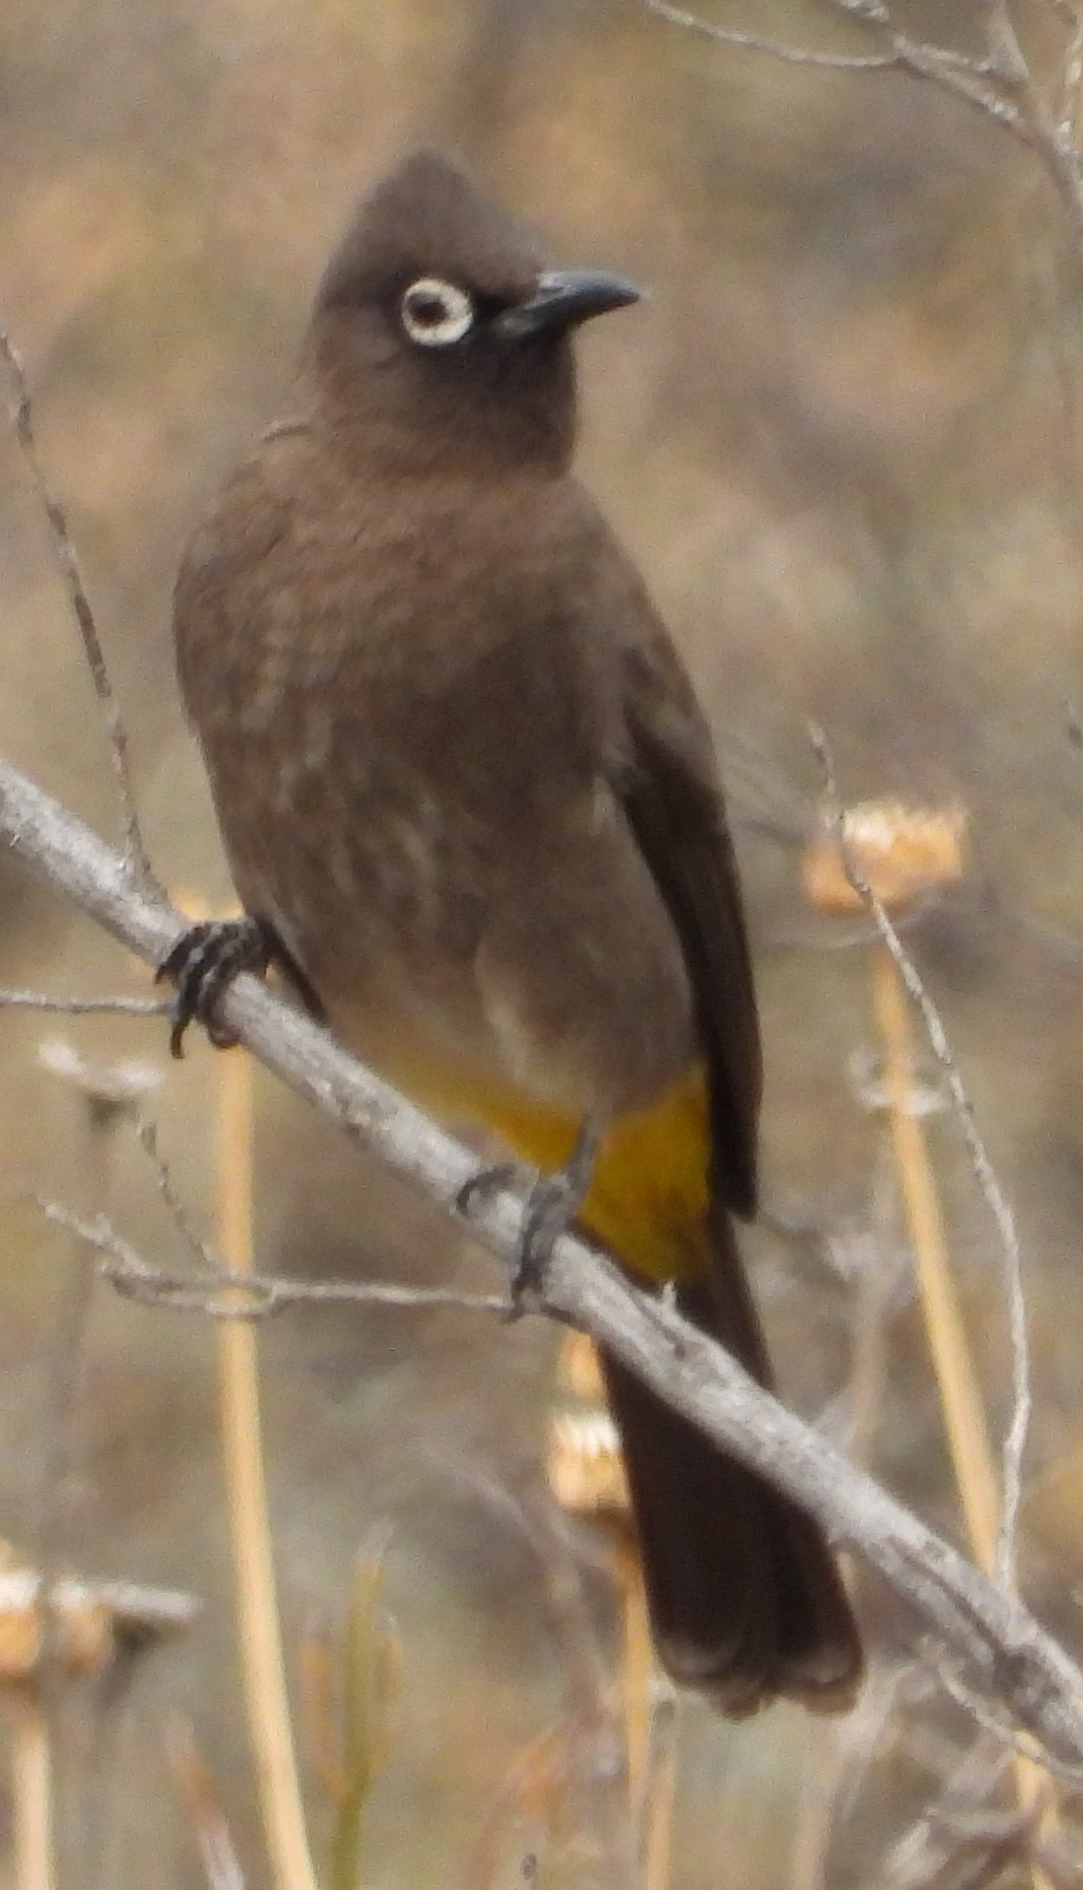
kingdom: Animalia
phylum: Chordata
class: Aves
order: Passeriformes
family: Pycnonotidae
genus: Pycnonotus
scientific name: Pycnonotus capensis
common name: Cape bulbul
